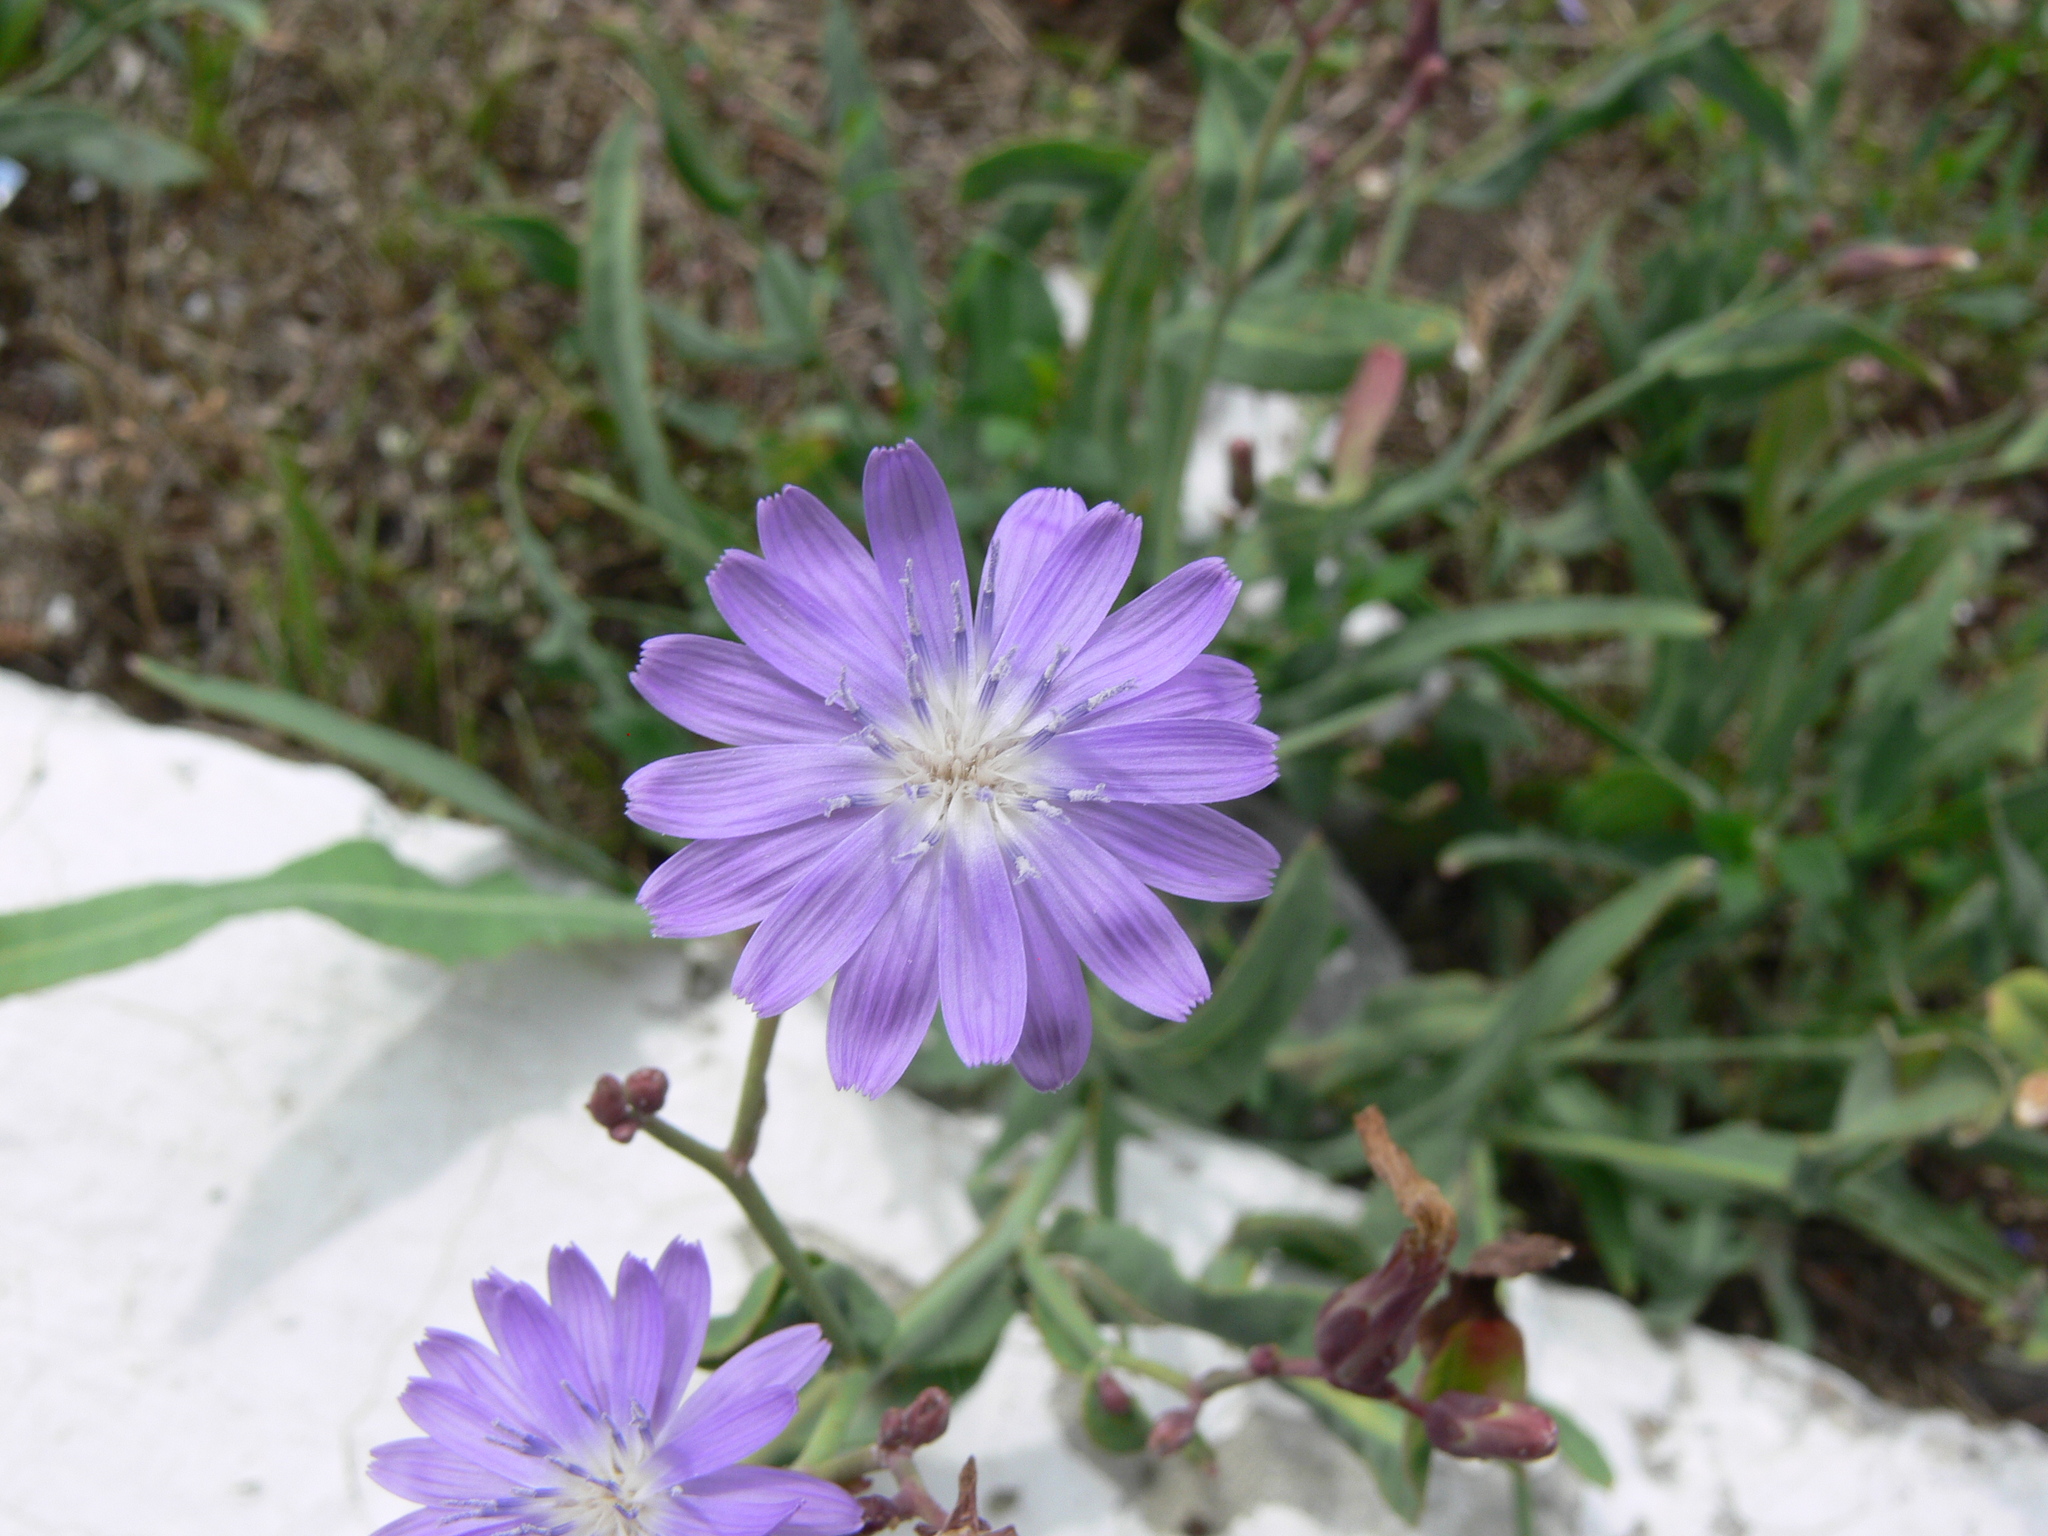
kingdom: Plantae
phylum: Tracheophyta
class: Magnoliopsida
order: Asterales
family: Asteraceae
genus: Lactuca
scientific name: Lactuca tatarica
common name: Blue lettuce
